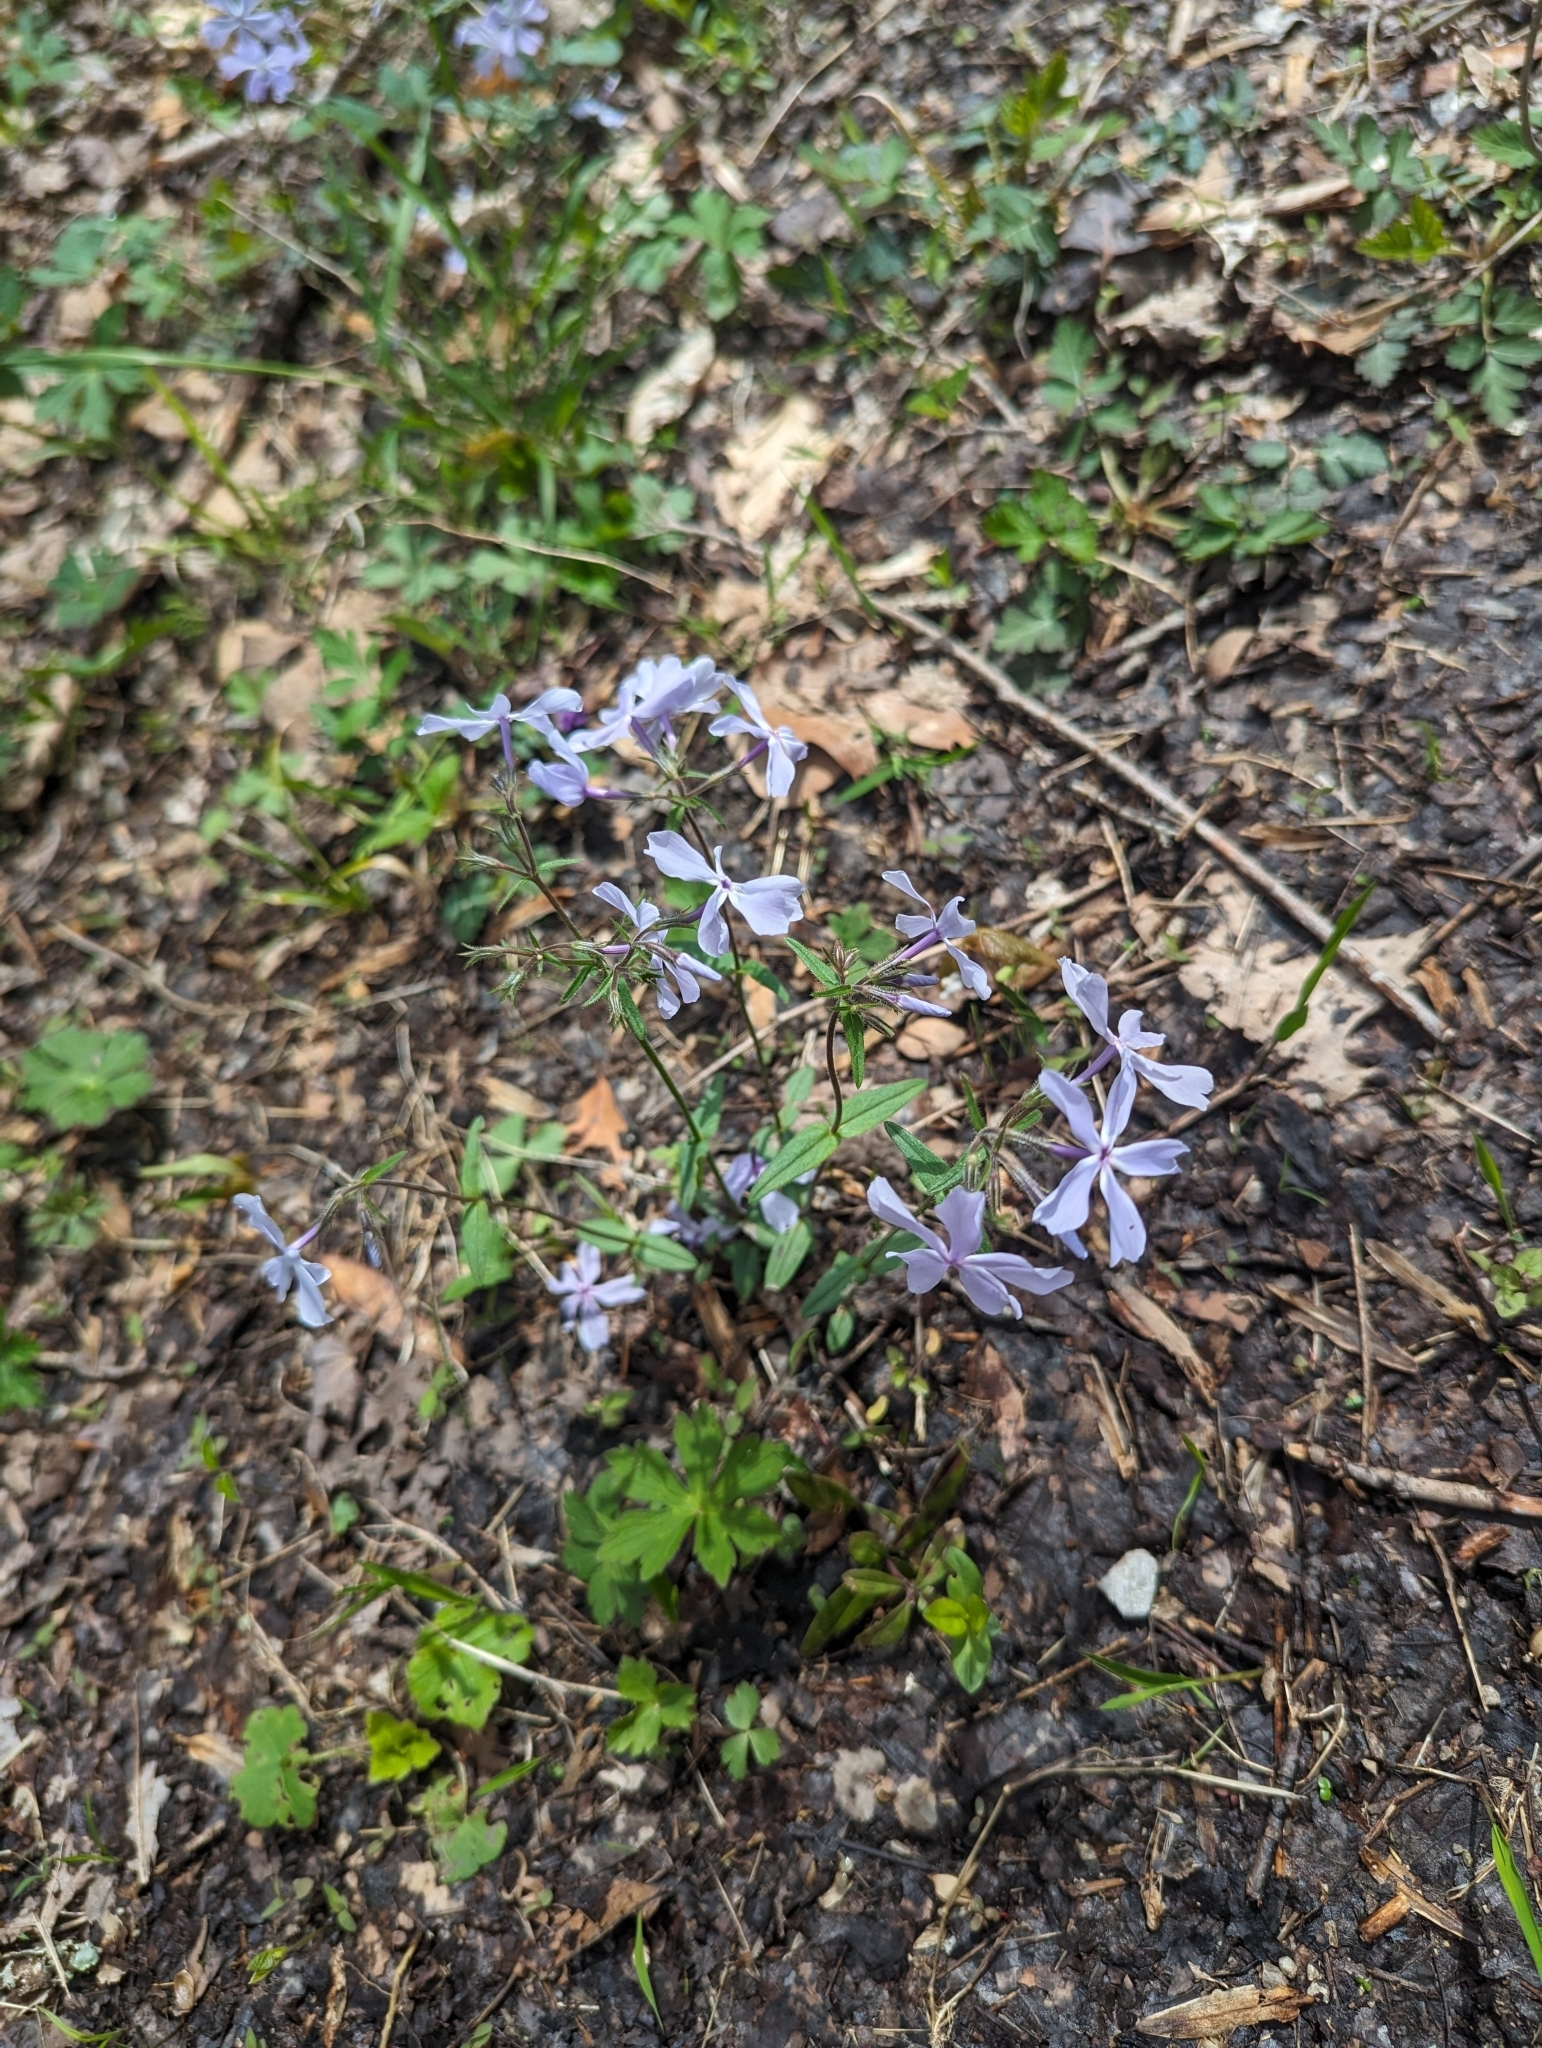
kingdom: Plantae
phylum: Tracheophyta
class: Magnoliopsida
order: Ericales
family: Polemoniaceae
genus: Phlox
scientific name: Phlox divaricata
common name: Blue phlox
